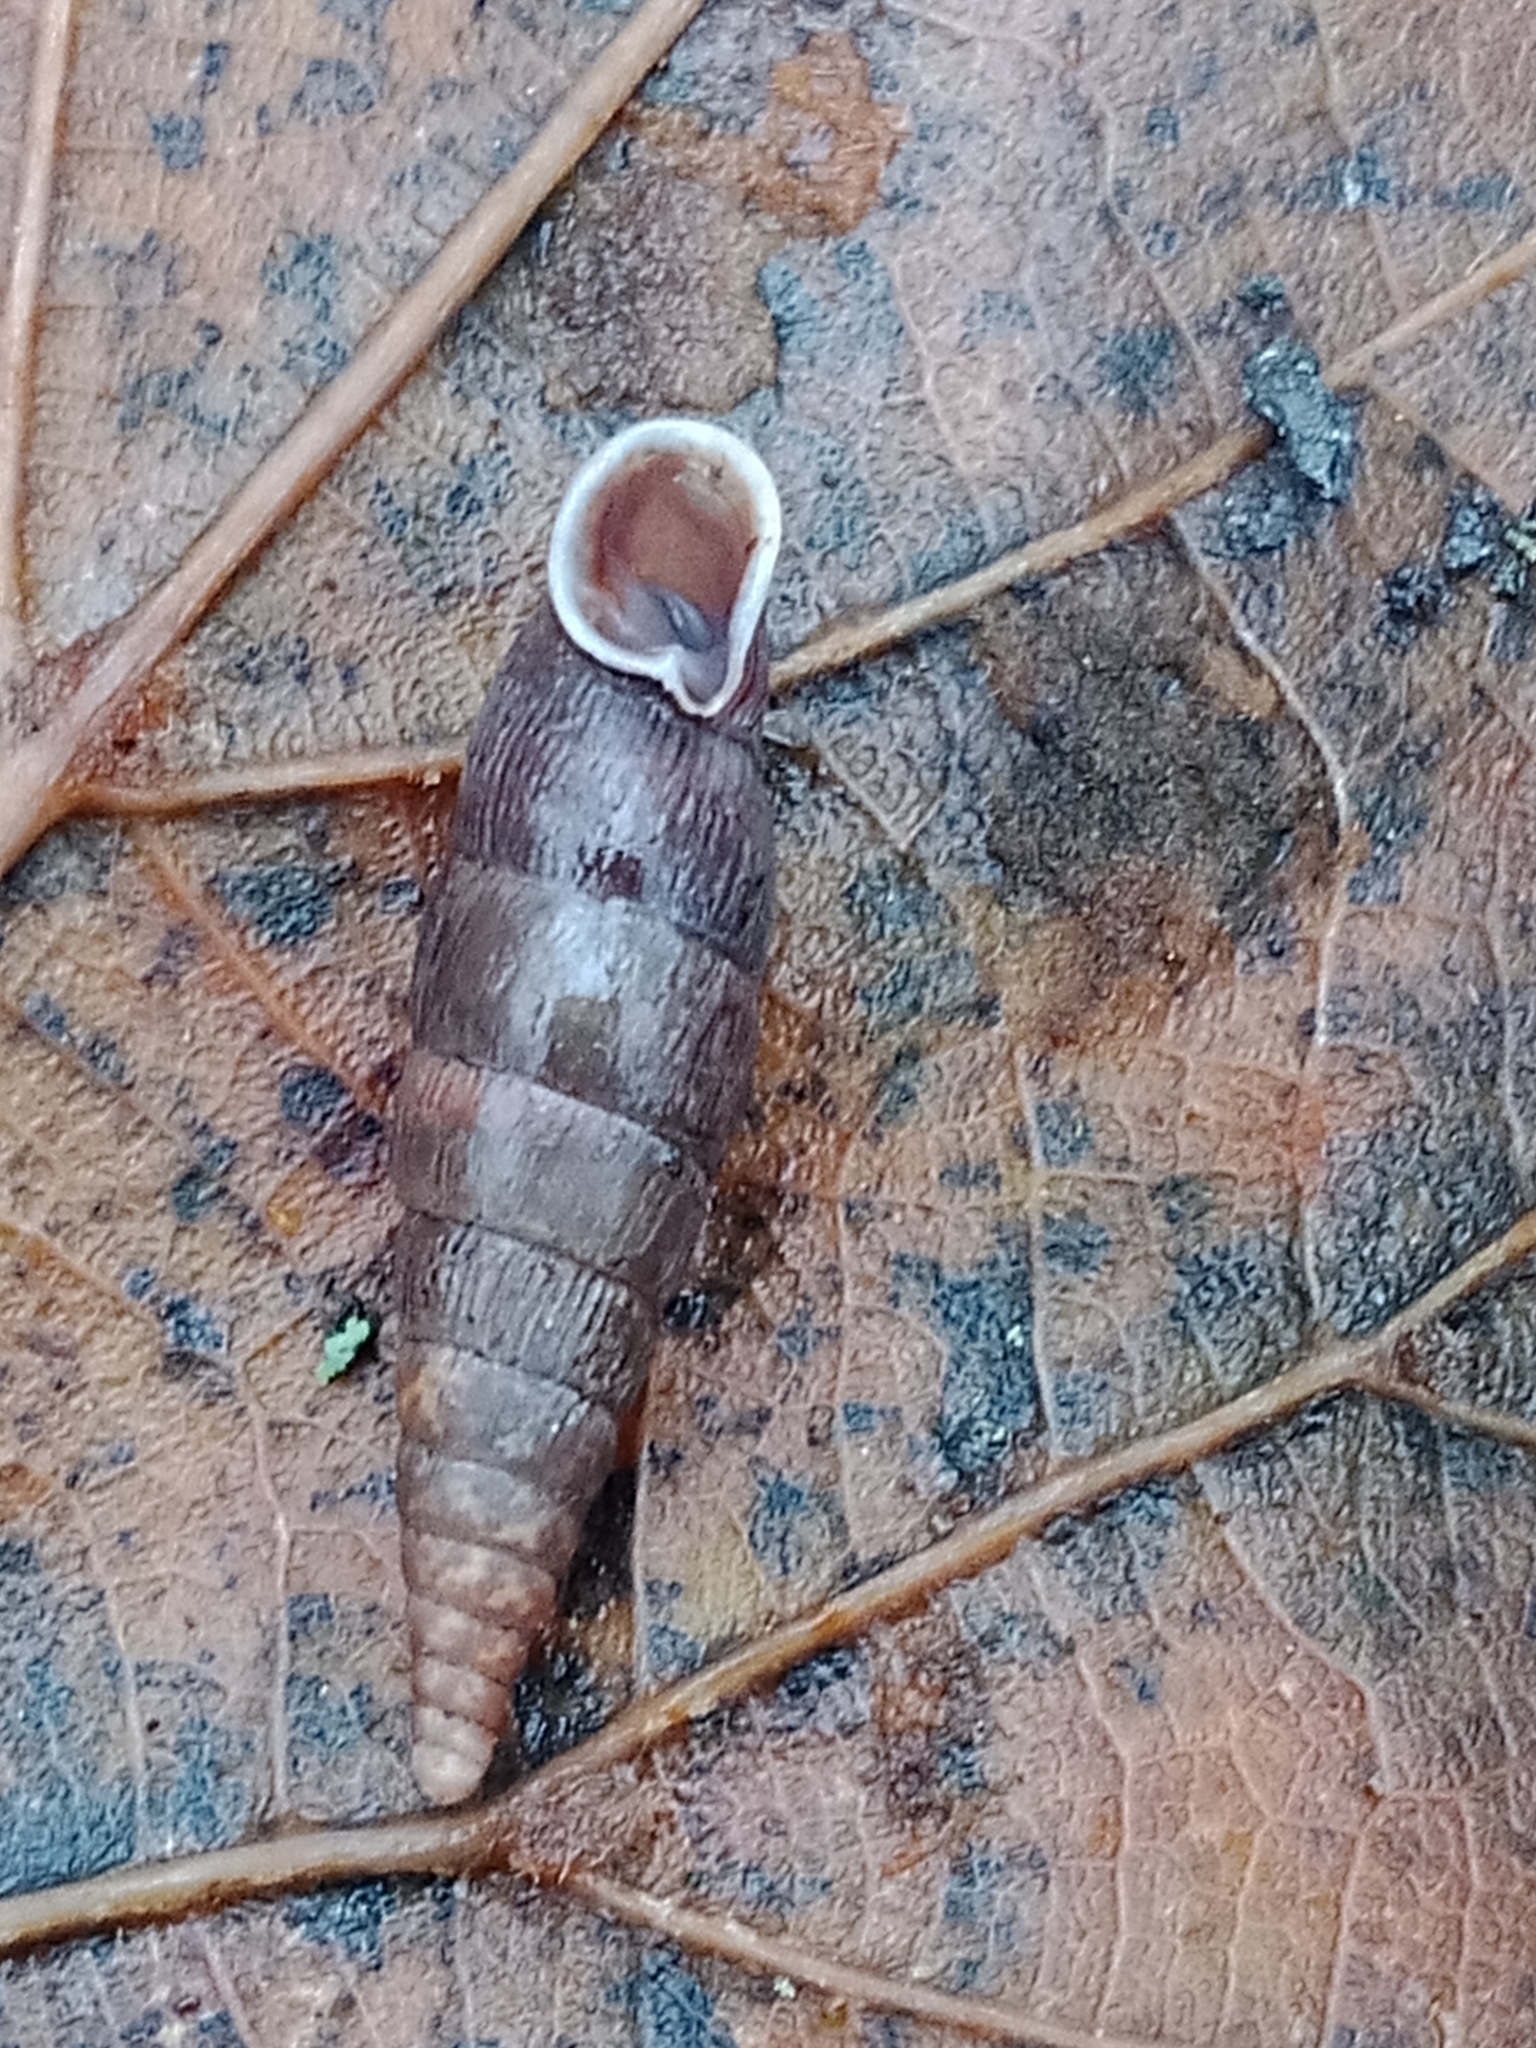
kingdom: Animalia
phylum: Mollusca
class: Gastropoda
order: Stylommatophora
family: Clausiliidae
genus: Macrogastra
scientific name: Macrogastra ventricosa
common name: Ventricose door snail
